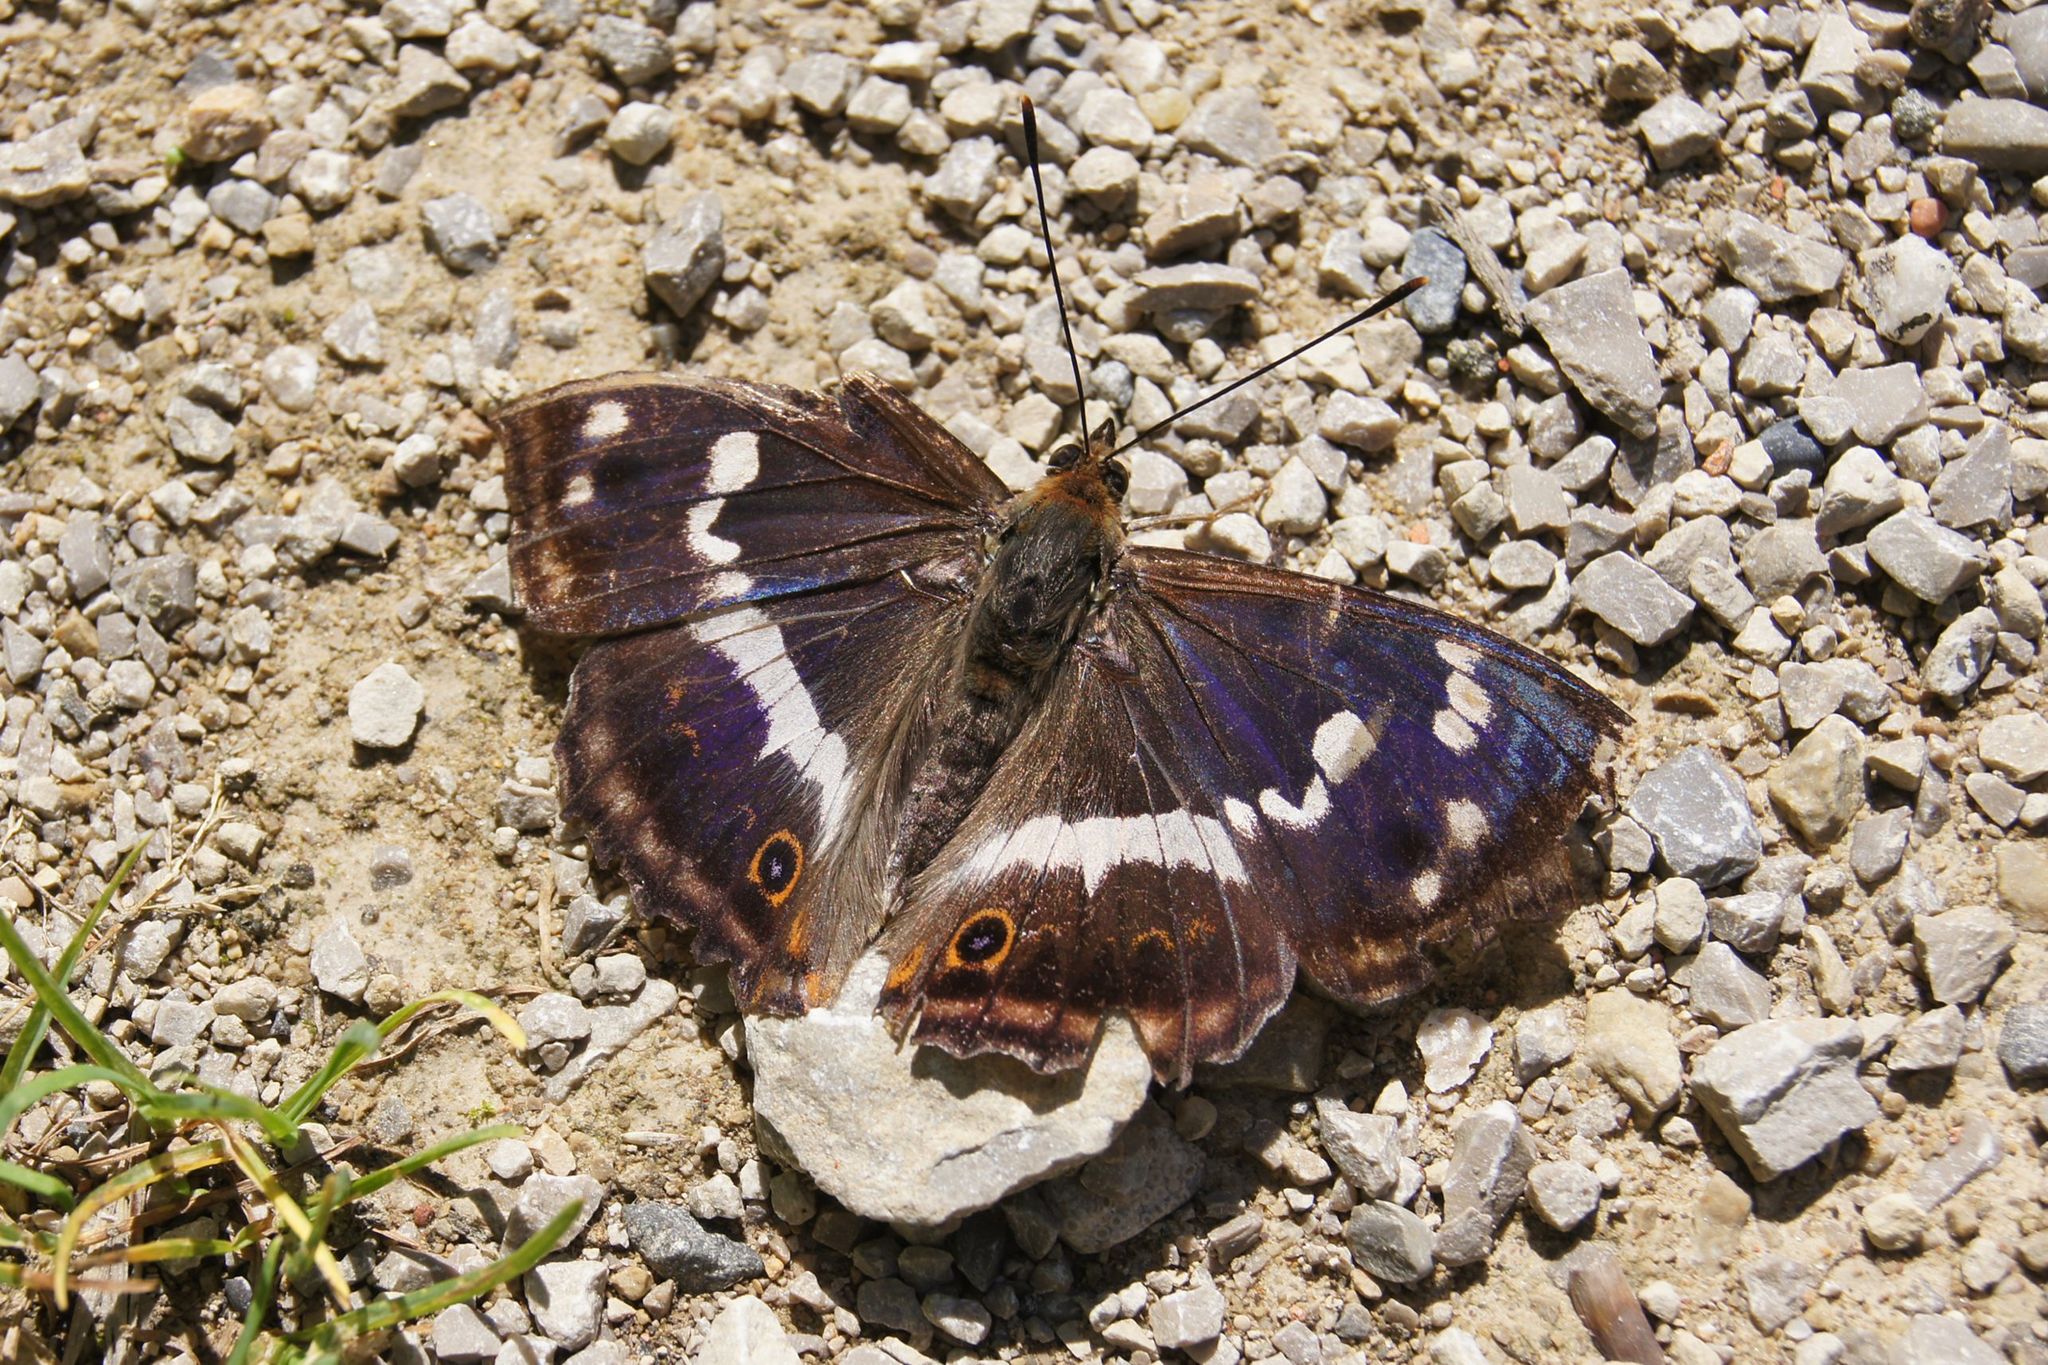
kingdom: Animalia
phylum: Arthropoda
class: Insecta
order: Lepidoptera
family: Nymphalidae
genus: Apatura
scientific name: Apatura iris
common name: Purple emperor
